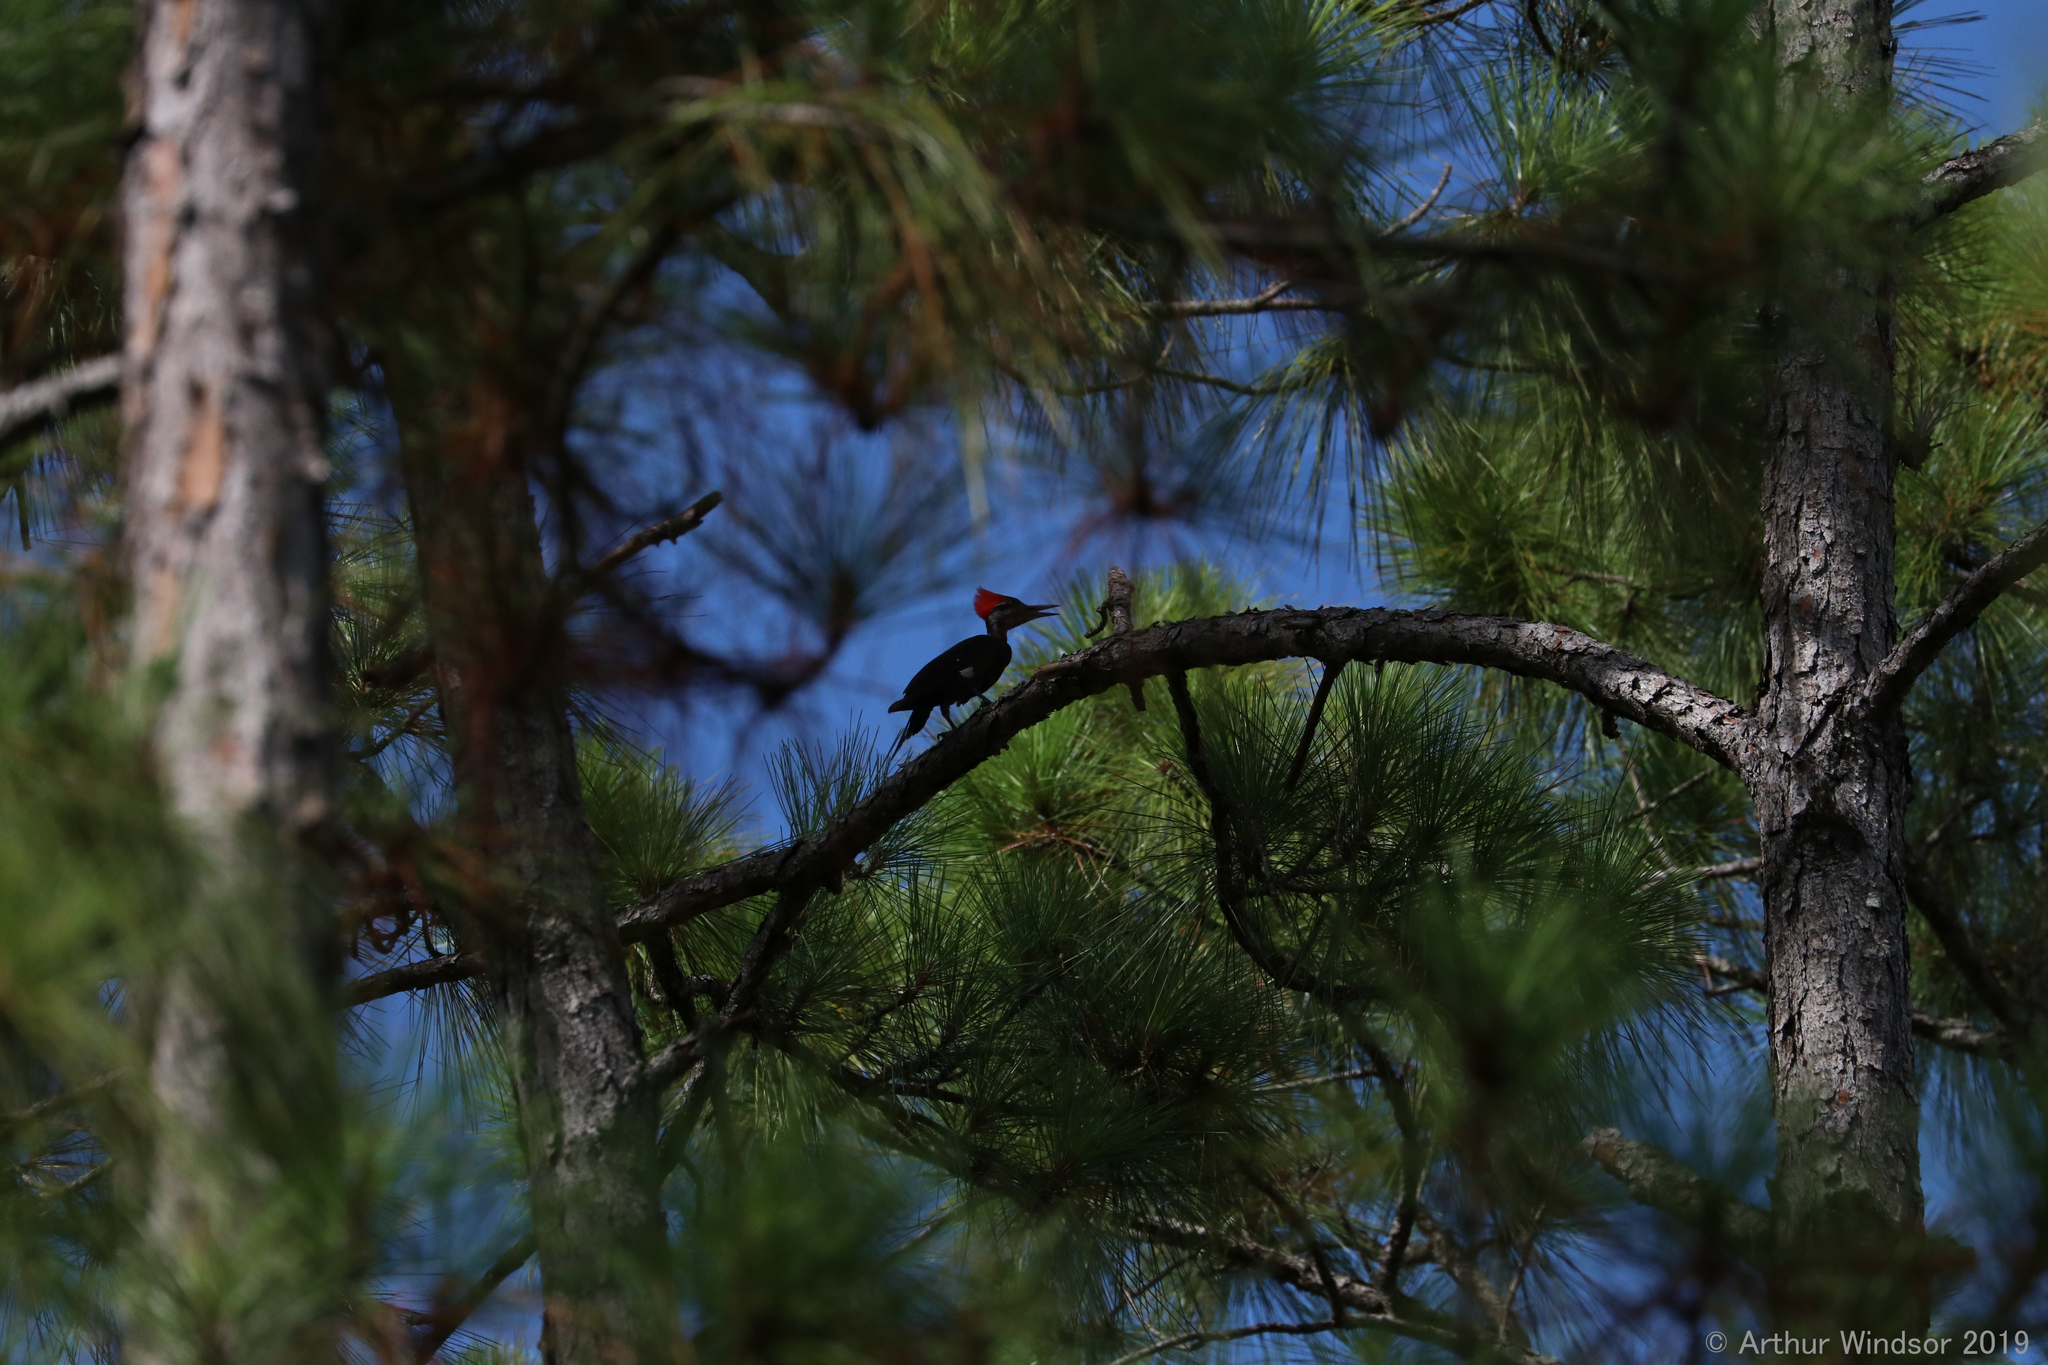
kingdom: Animalia
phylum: Chordata
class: Aves
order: Piciformes
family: Picidae
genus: Dryocopus
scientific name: Dryocopus pileatus
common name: Pileated woodpecker
